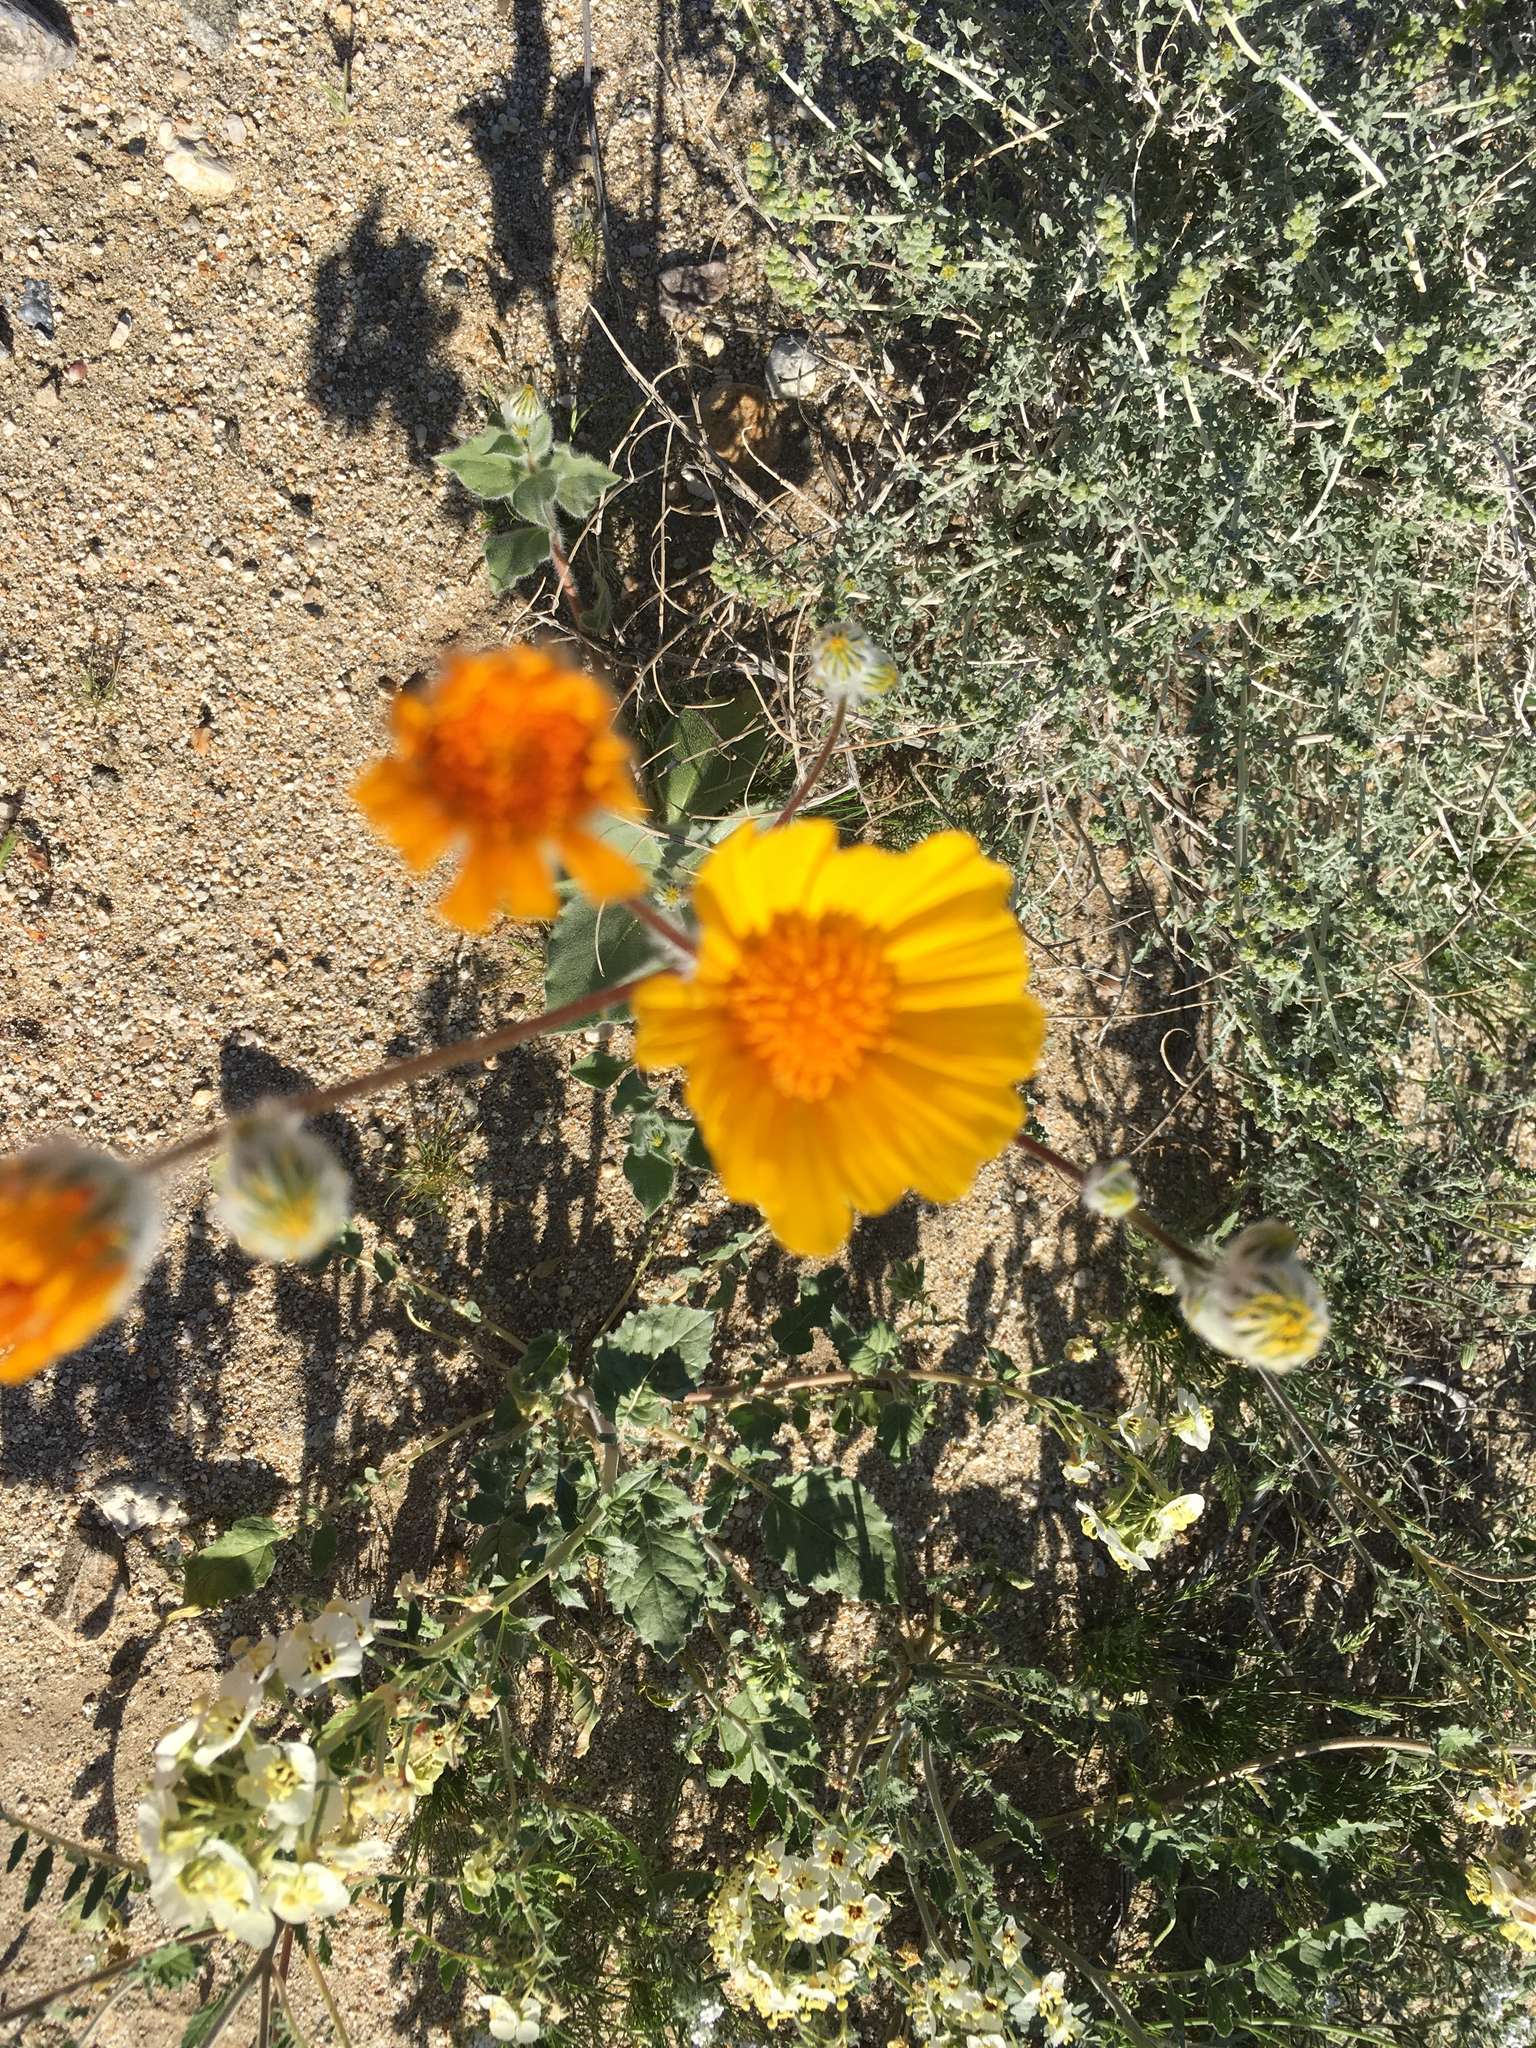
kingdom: Plantae
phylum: Tracheophyta
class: Magnoliopsida
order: Asterales
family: Asteraceae
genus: Geraea
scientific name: Geraea canescens
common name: Desert-gold
